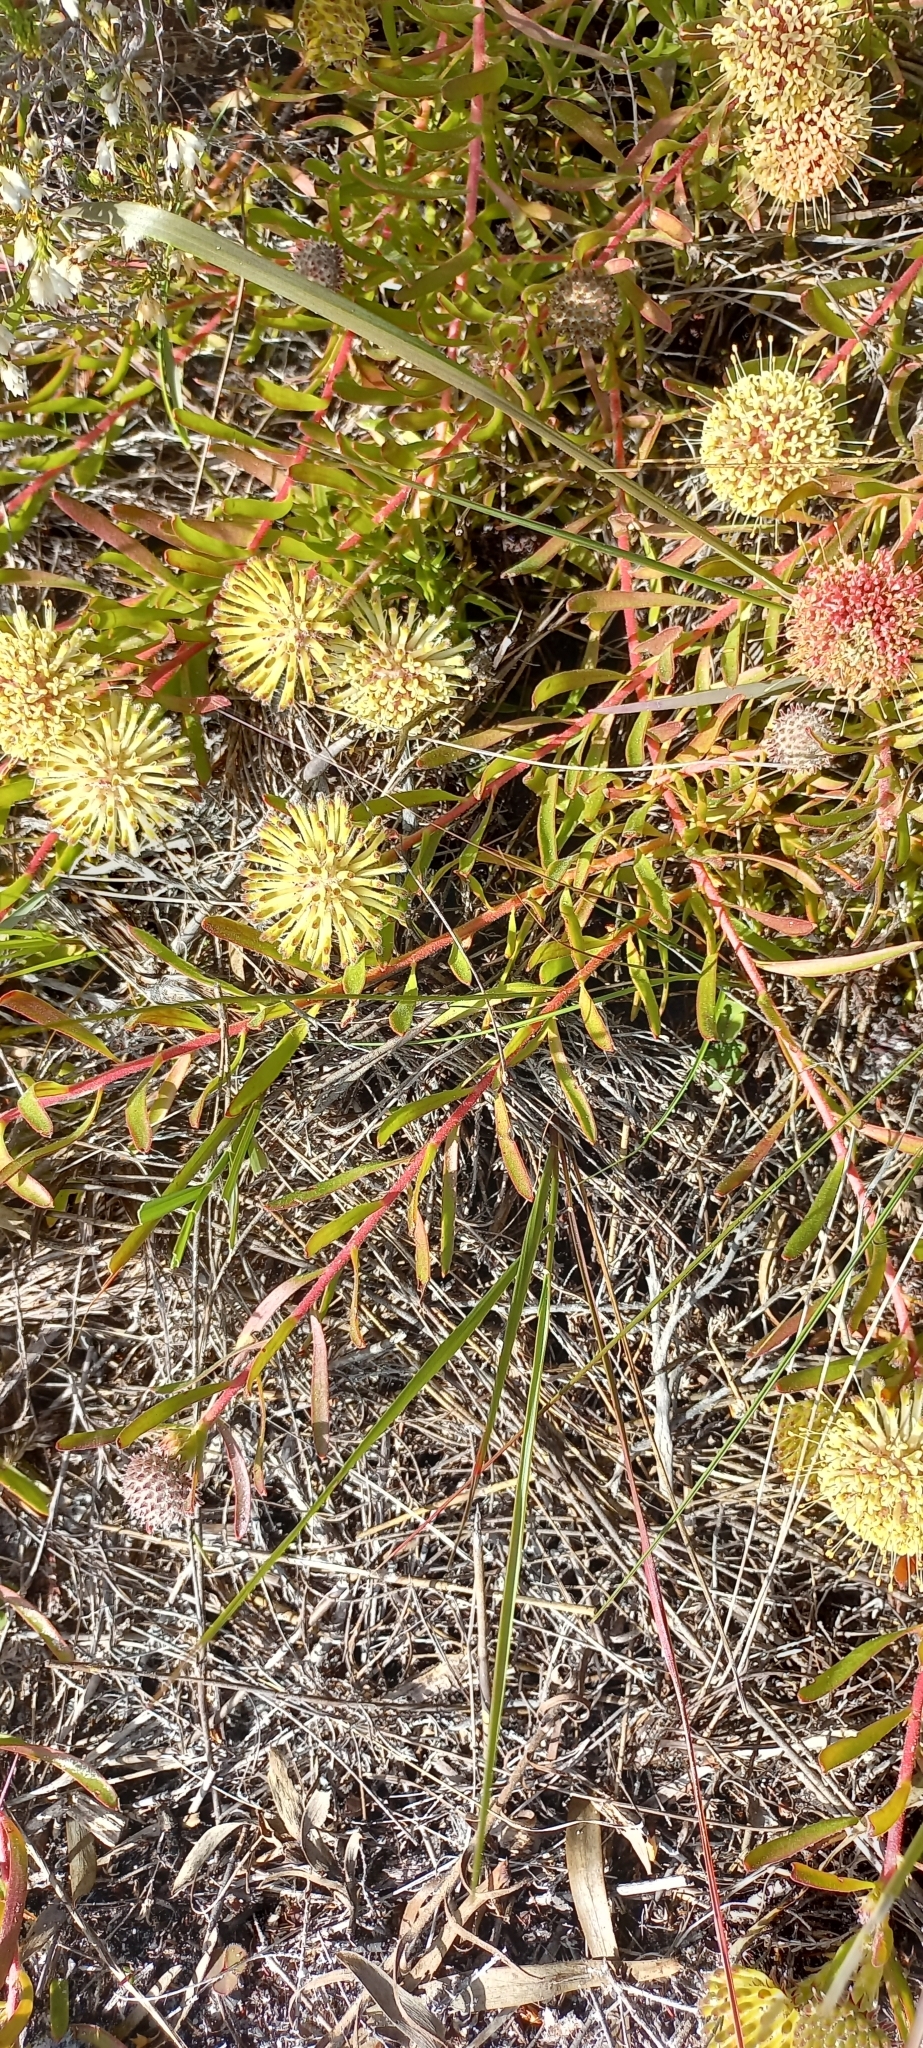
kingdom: Plantae
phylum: Tracheophyta
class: Magnoliopsida
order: Proteales
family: Proteaceae
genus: Leucospermum
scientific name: Leucospermum pedunculatum
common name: White-trailing pincushion
